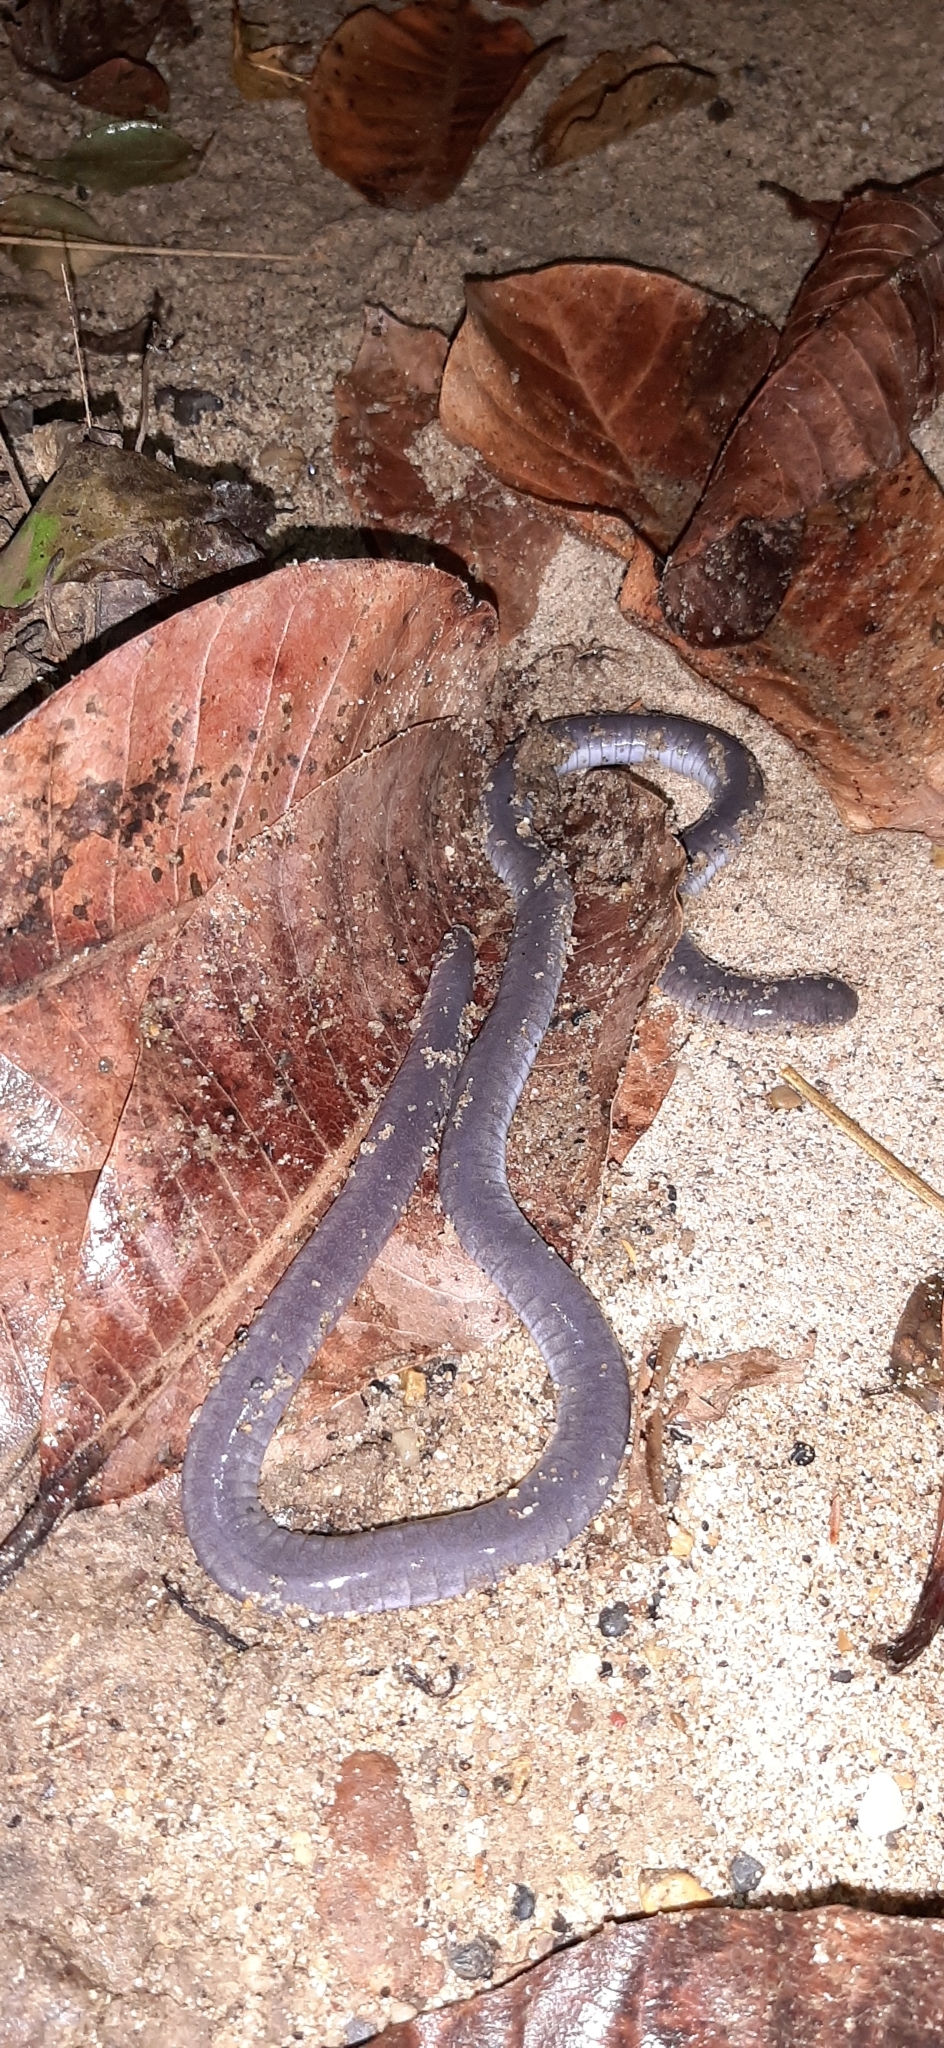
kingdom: Animalia
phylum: Chordata
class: Amphibia
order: Gymnophiona
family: Caeciliidae
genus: Caecilia
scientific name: Caecilia subnigricans
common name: Magdalena valley caecilian
